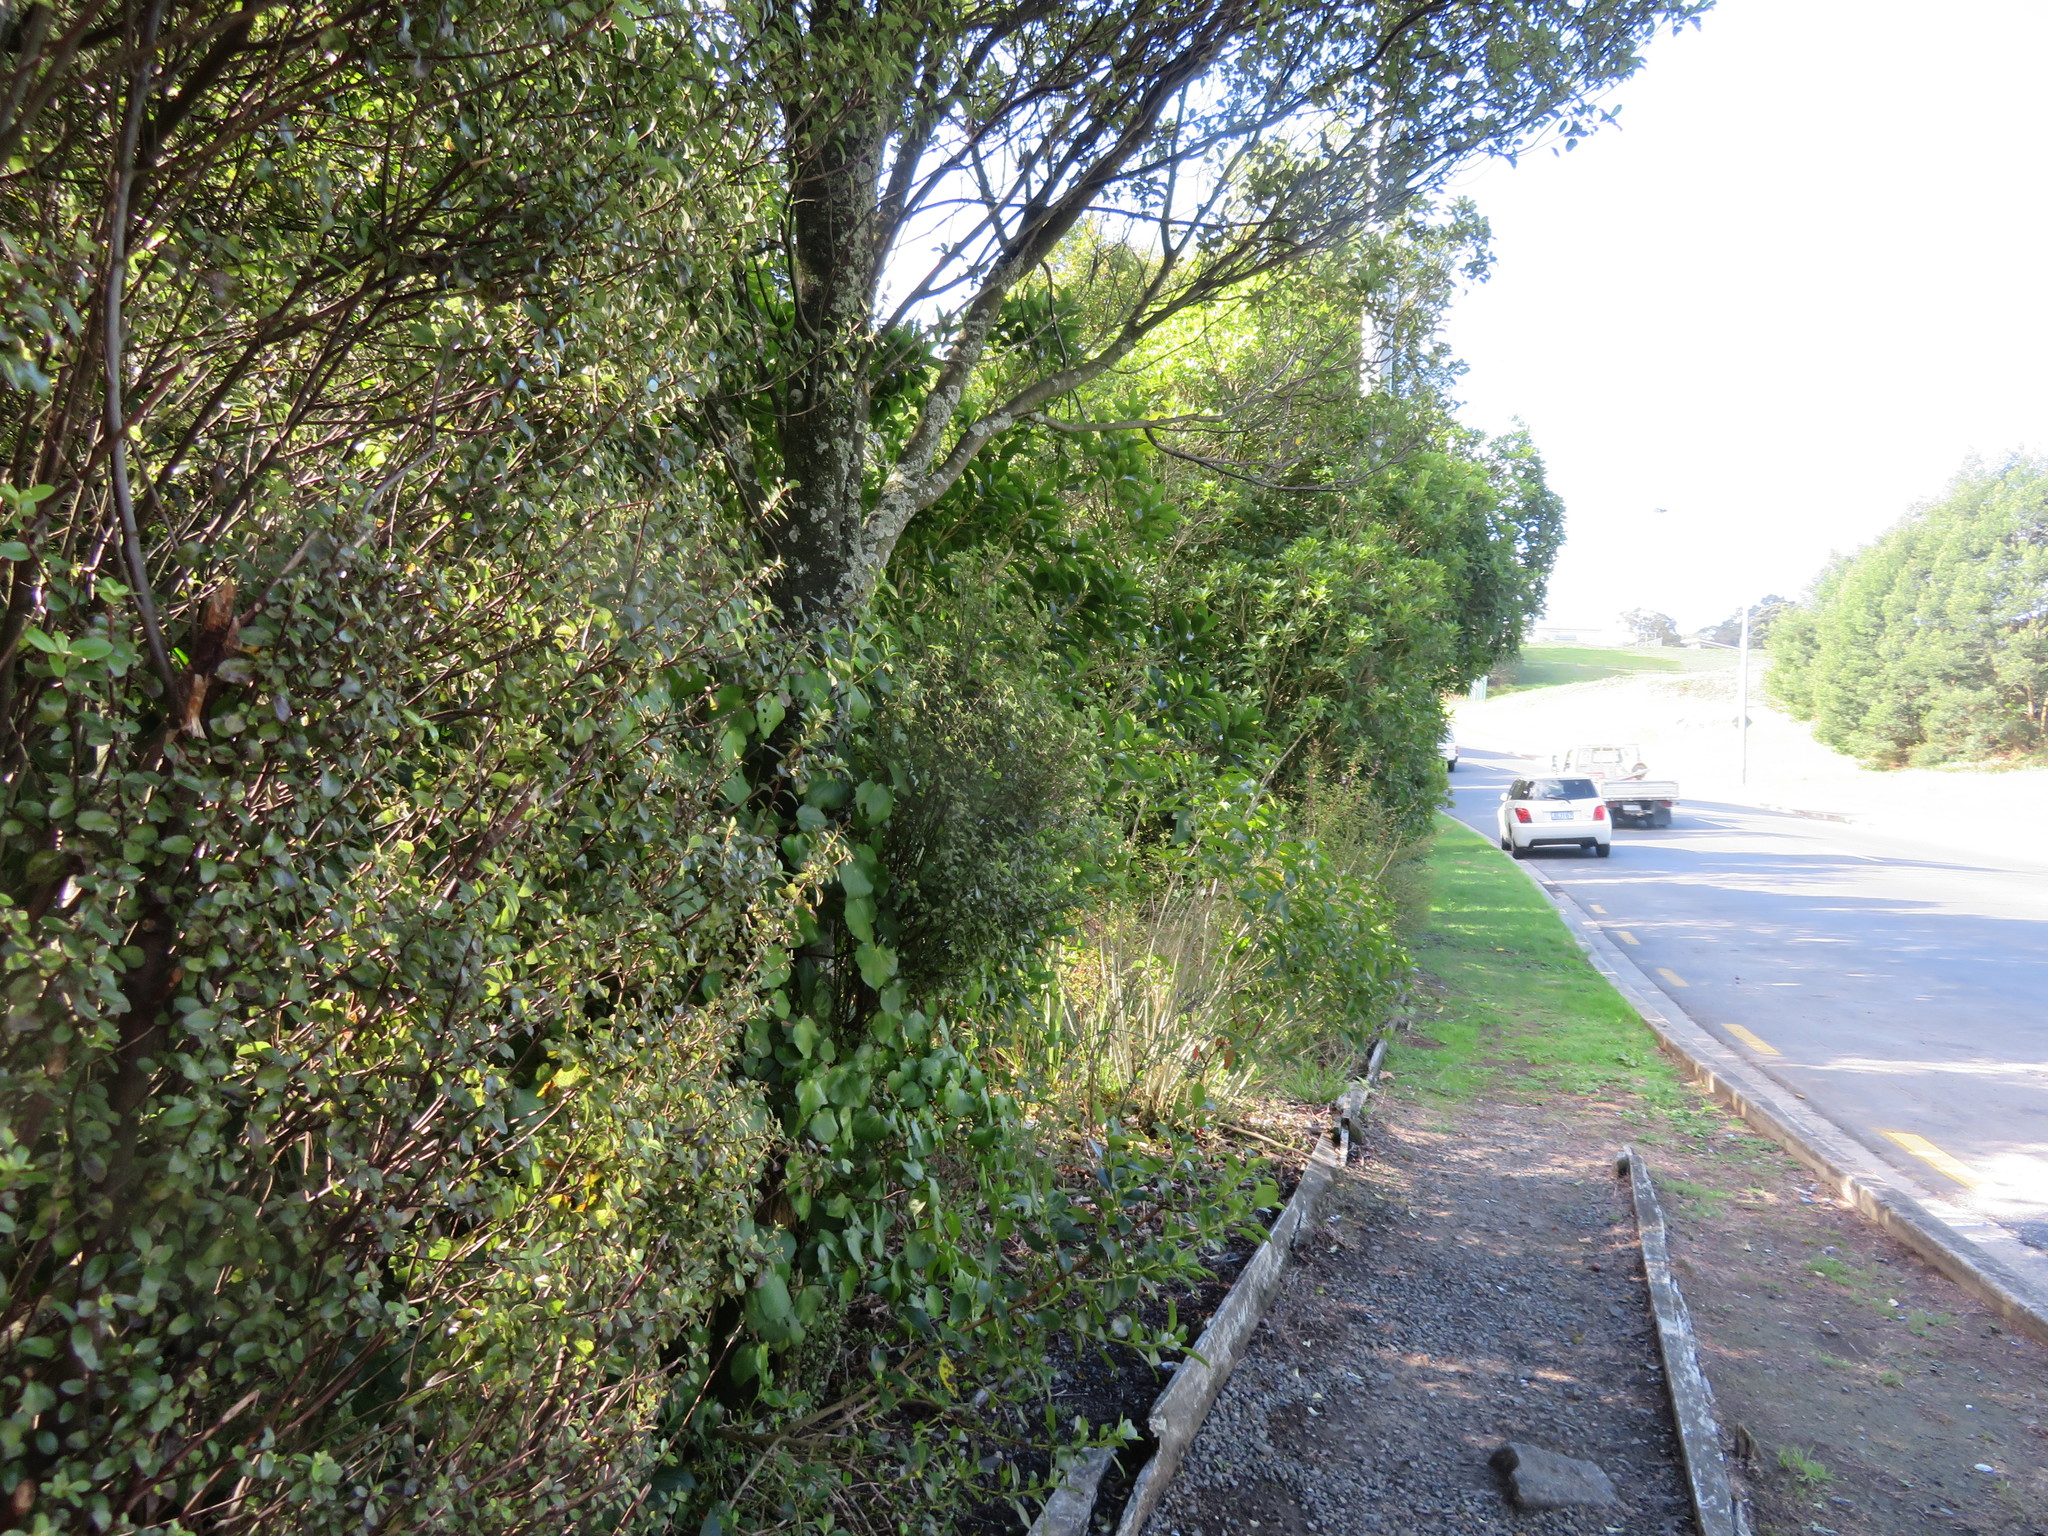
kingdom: Plantae
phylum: Tracheophyta
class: Magnoliopsida
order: Ericales
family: Primulaceae
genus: Myrsine
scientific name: Myrsine australis
